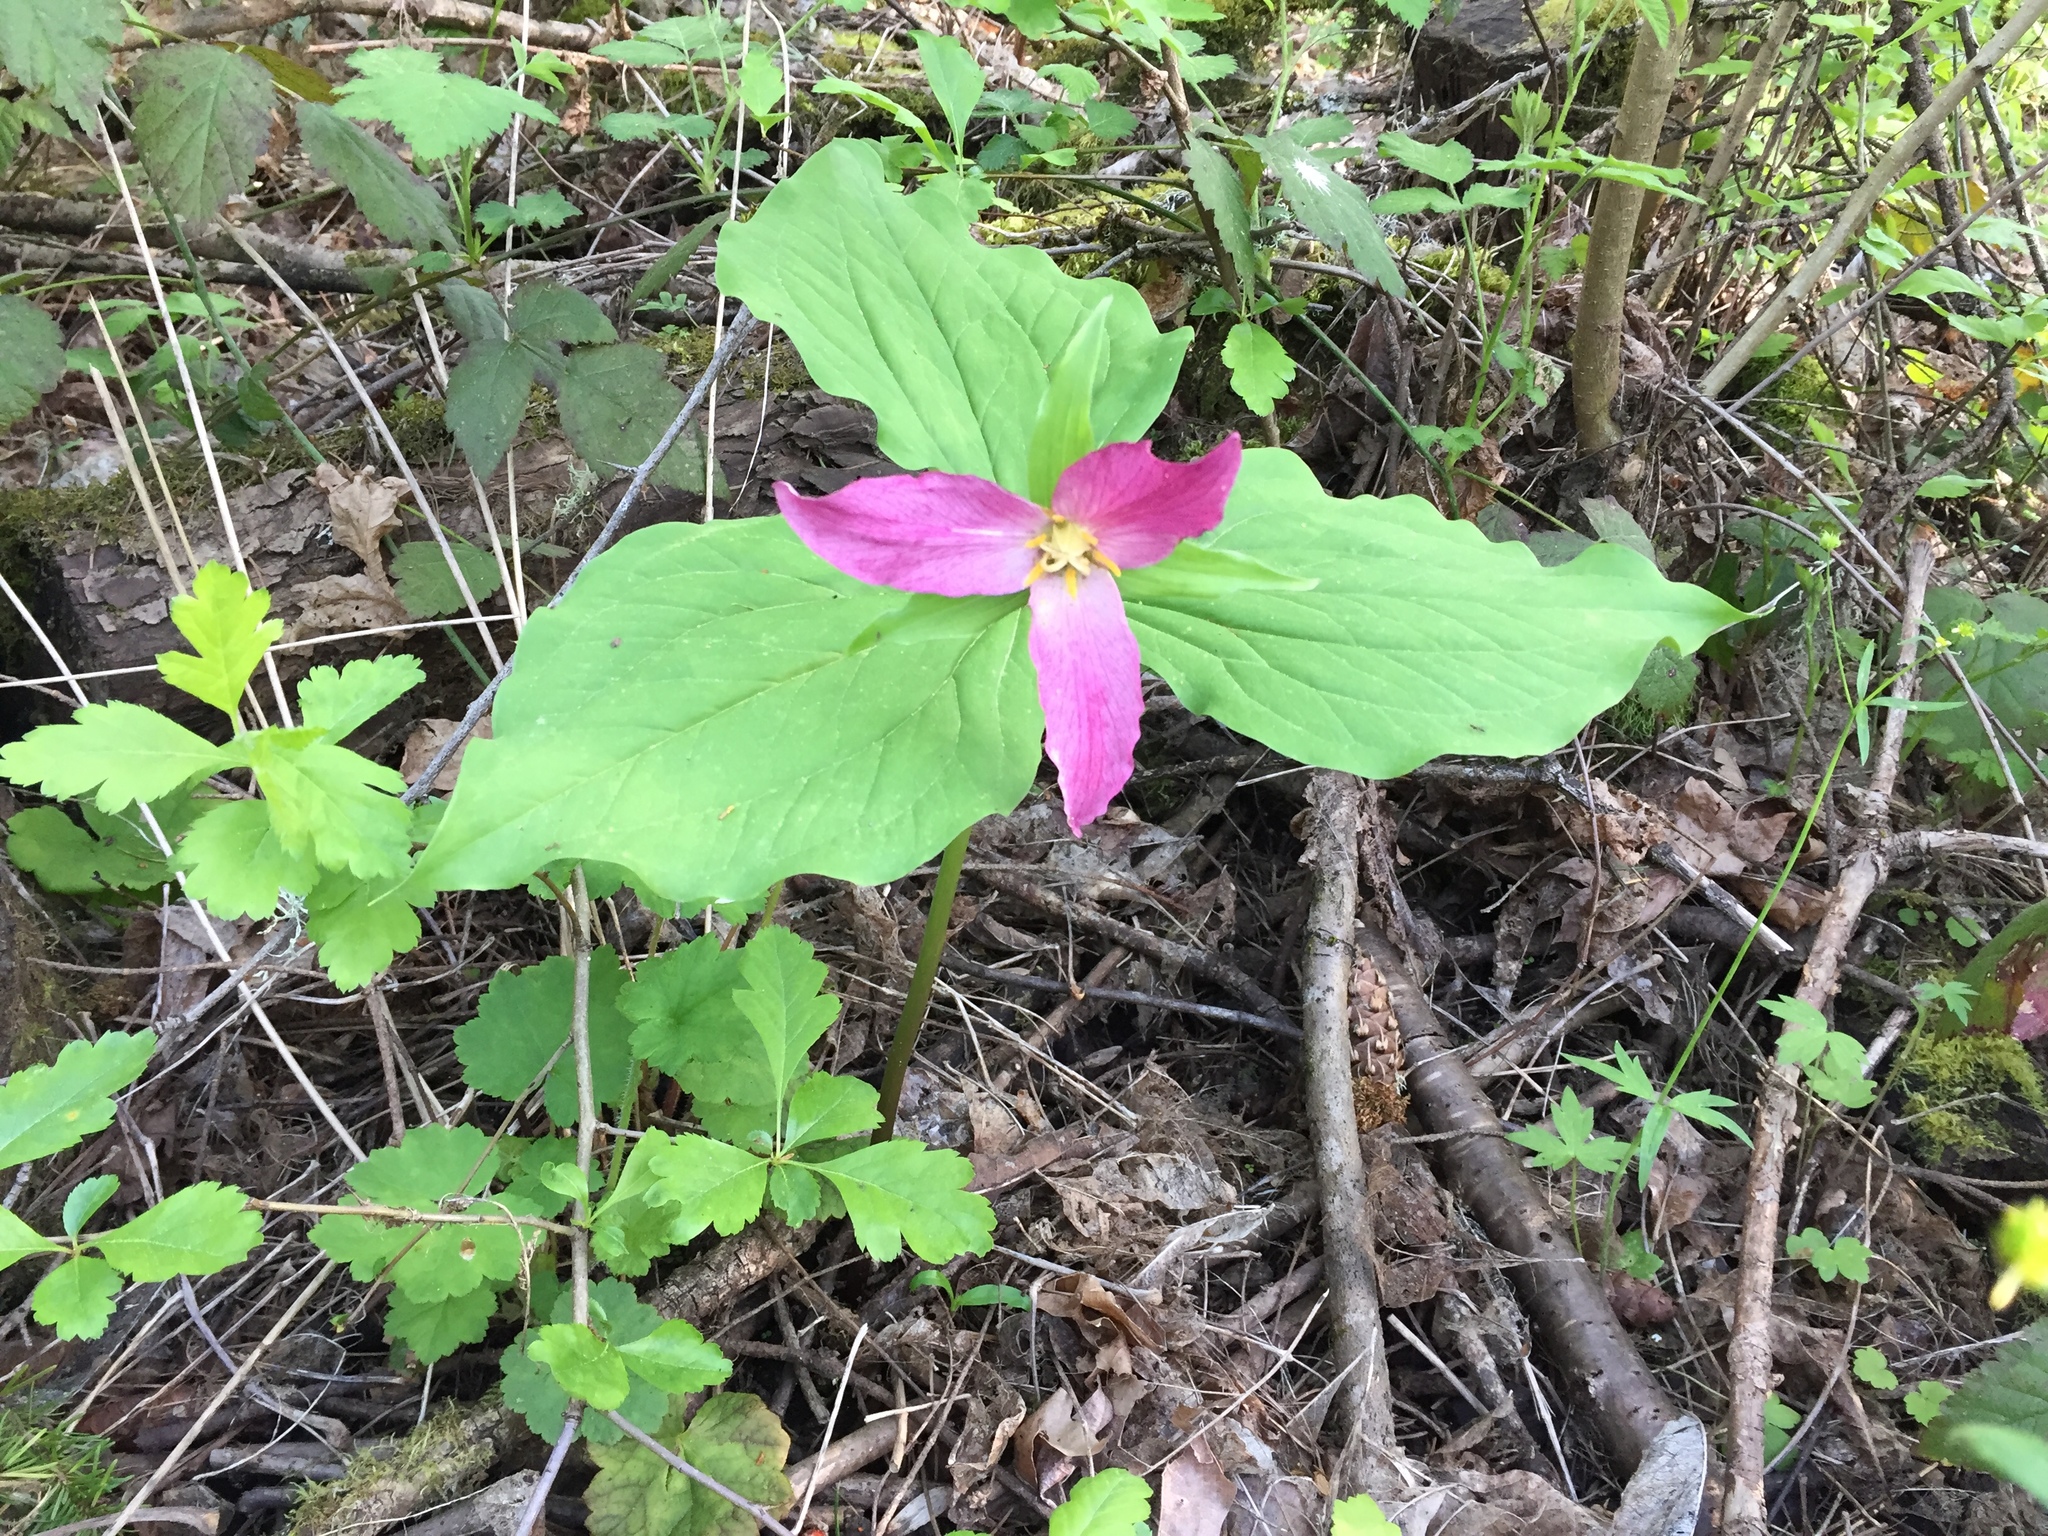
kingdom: Plantae
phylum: Tracheophyta
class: Liliopsida
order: Liliales
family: Melanthiaceae
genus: Trillium
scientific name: Trillium ovatum
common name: Pacific trillium
